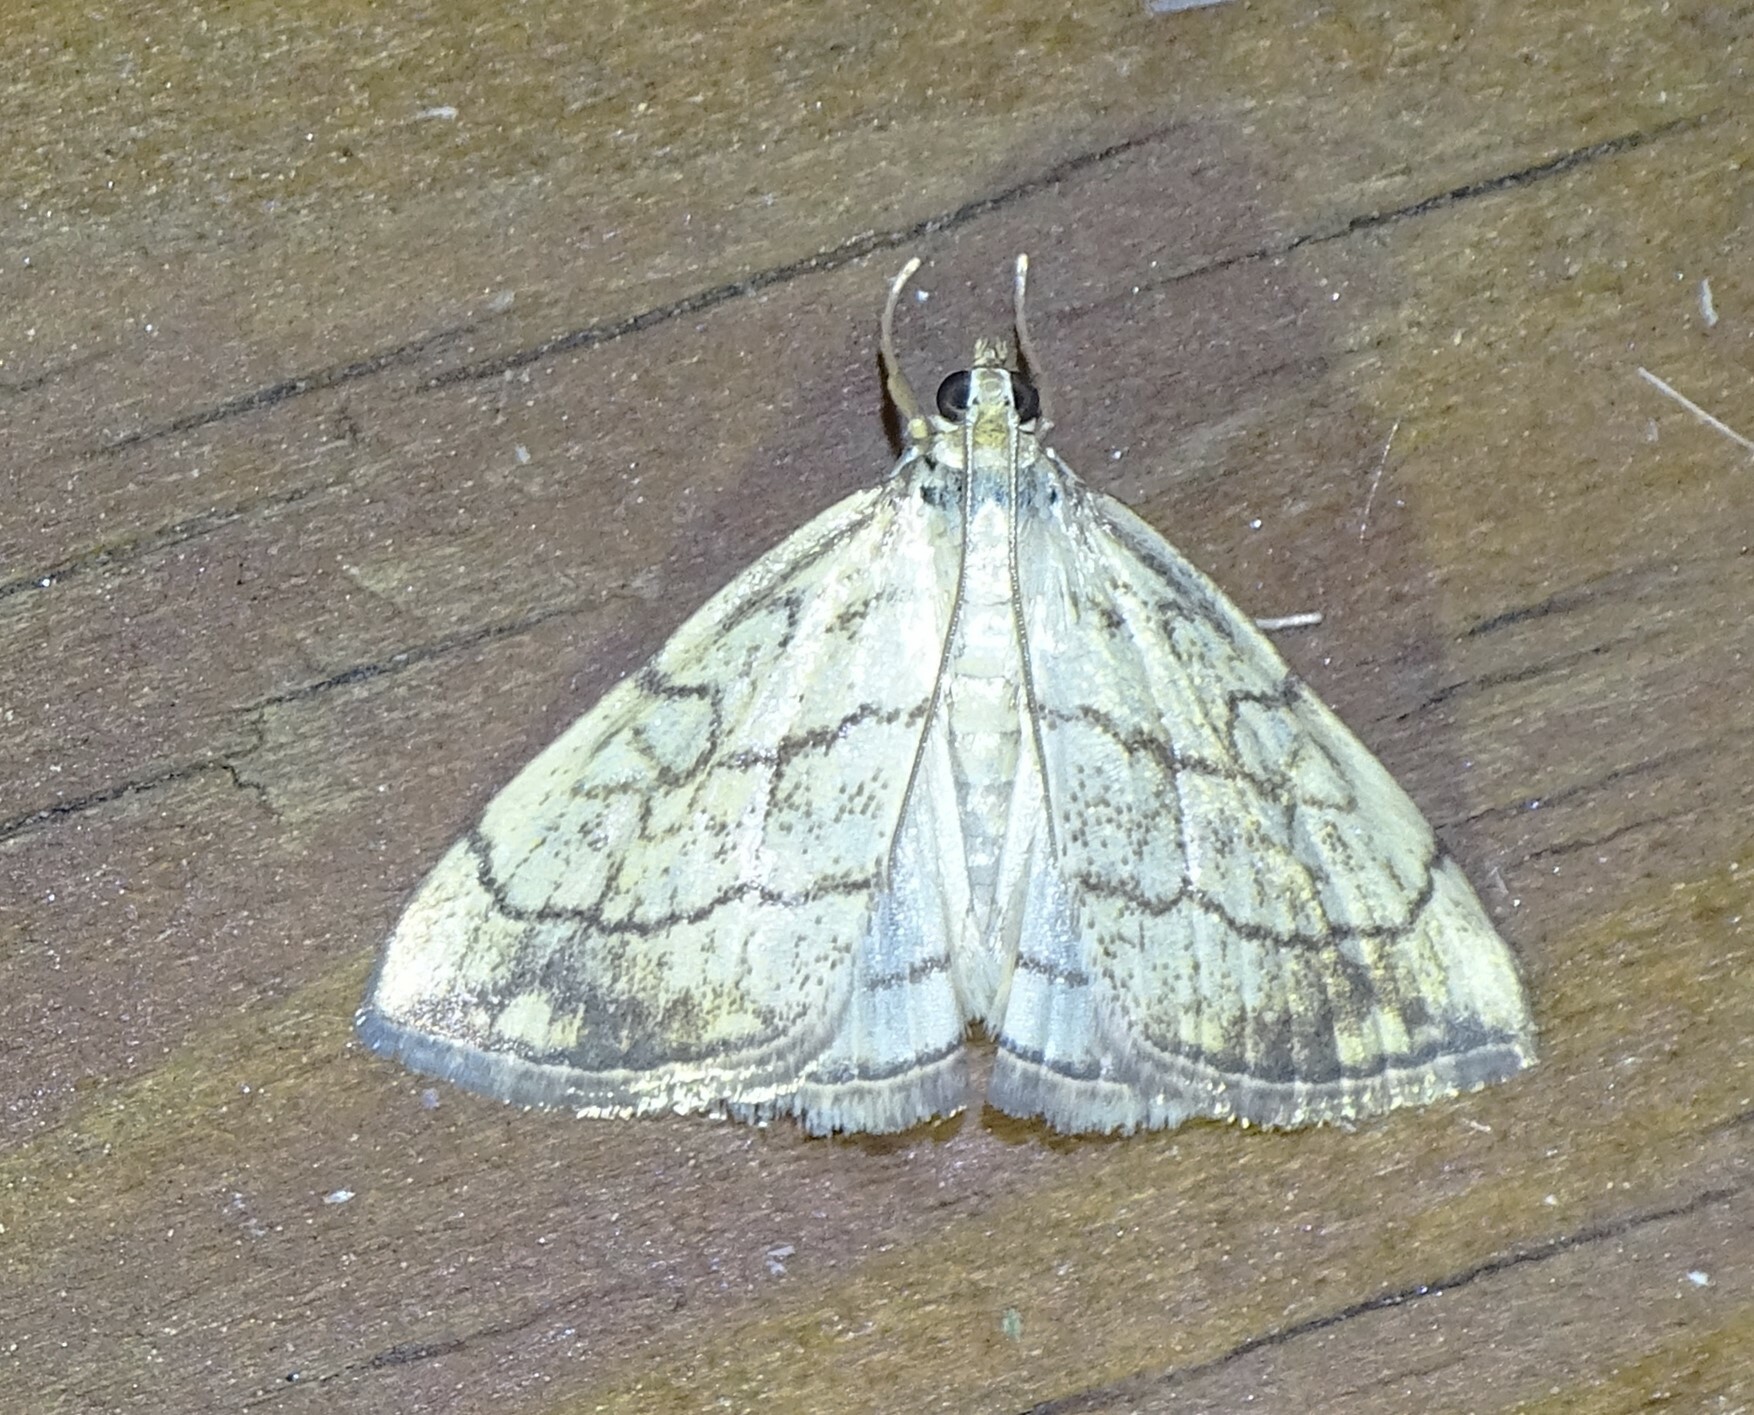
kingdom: Animalia
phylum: Arthropoda
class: Insecta
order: Lepidoptera
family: Crambidae
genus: Evergestis
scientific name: Evergestis pallidata
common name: Chequered pearl
